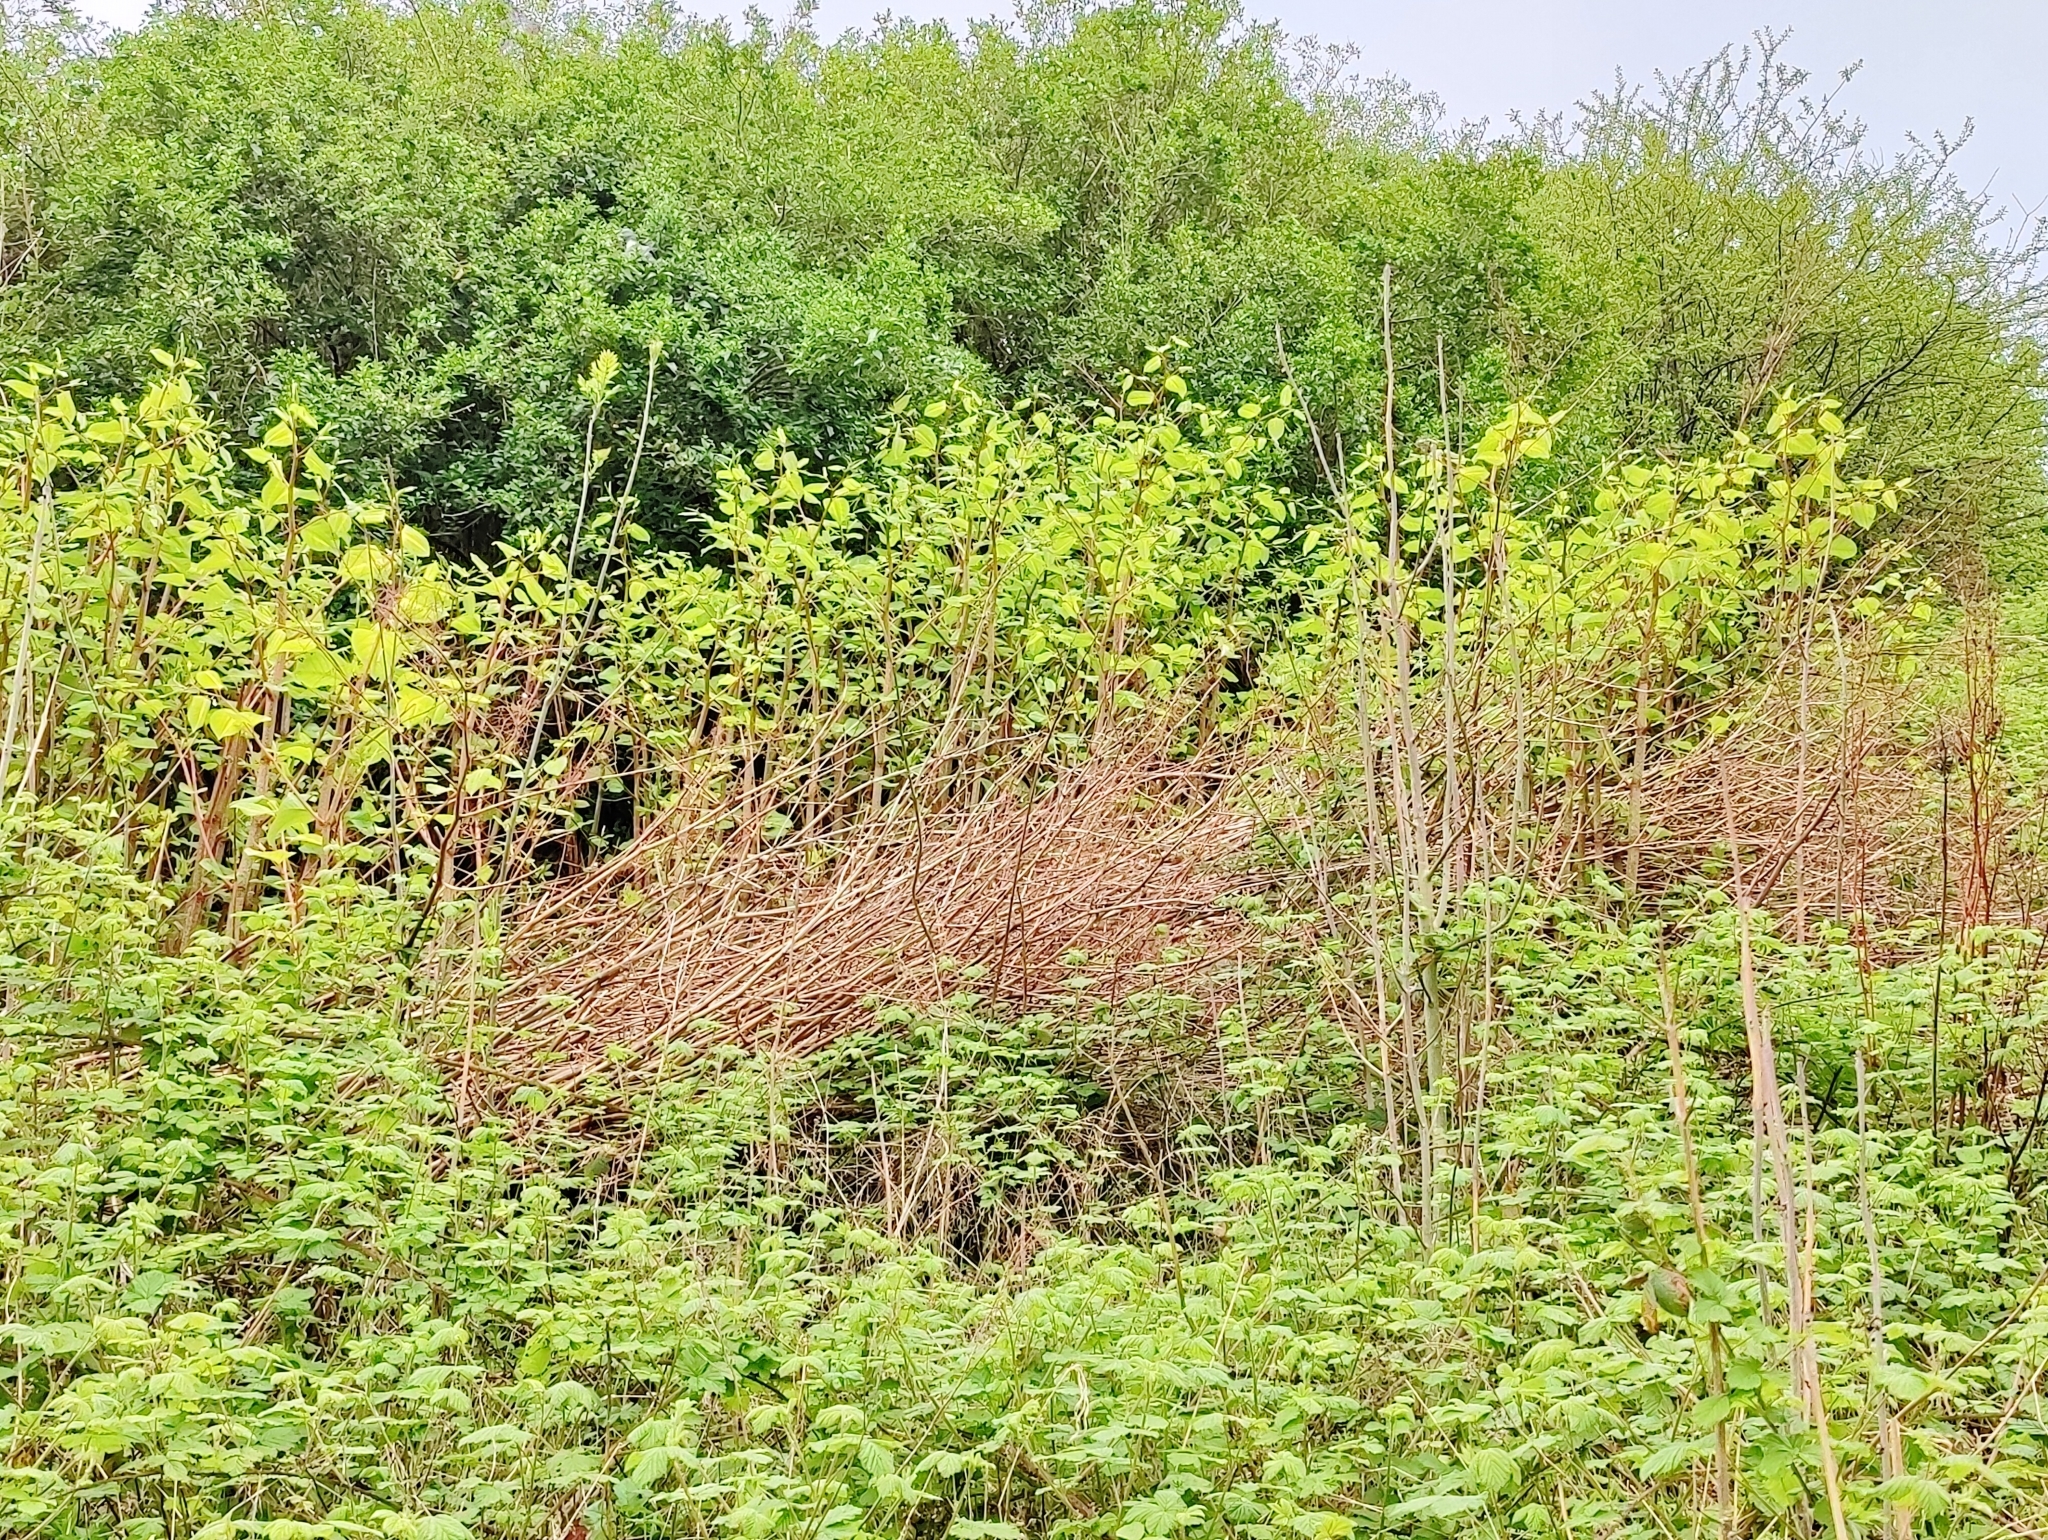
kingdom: Plantae
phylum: Tracheophyta
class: Magnoliopsida
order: Caryophyllales
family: Polygonaceae
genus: Reynoutria
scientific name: Reynoutria japonica
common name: Japanese knotweed
